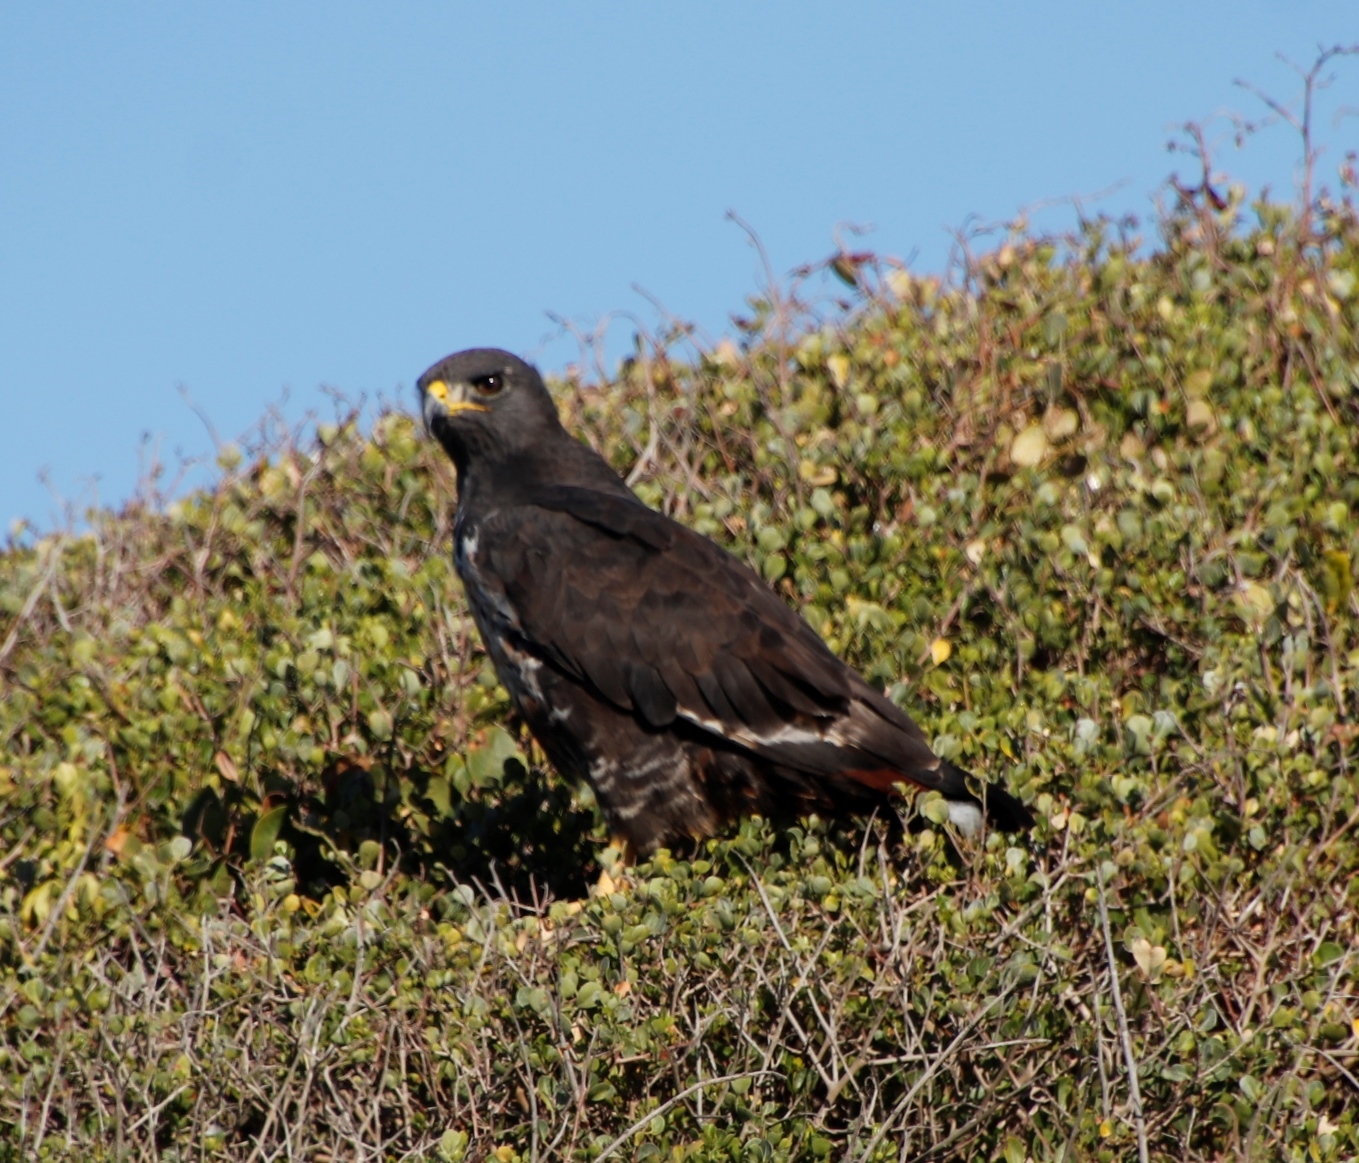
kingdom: Animalia
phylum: Chordata
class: Aves
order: Accipitriformes
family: Accipitridae
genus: Buteo
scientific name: Buteo rufofuscus
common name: Jackal buzzard
